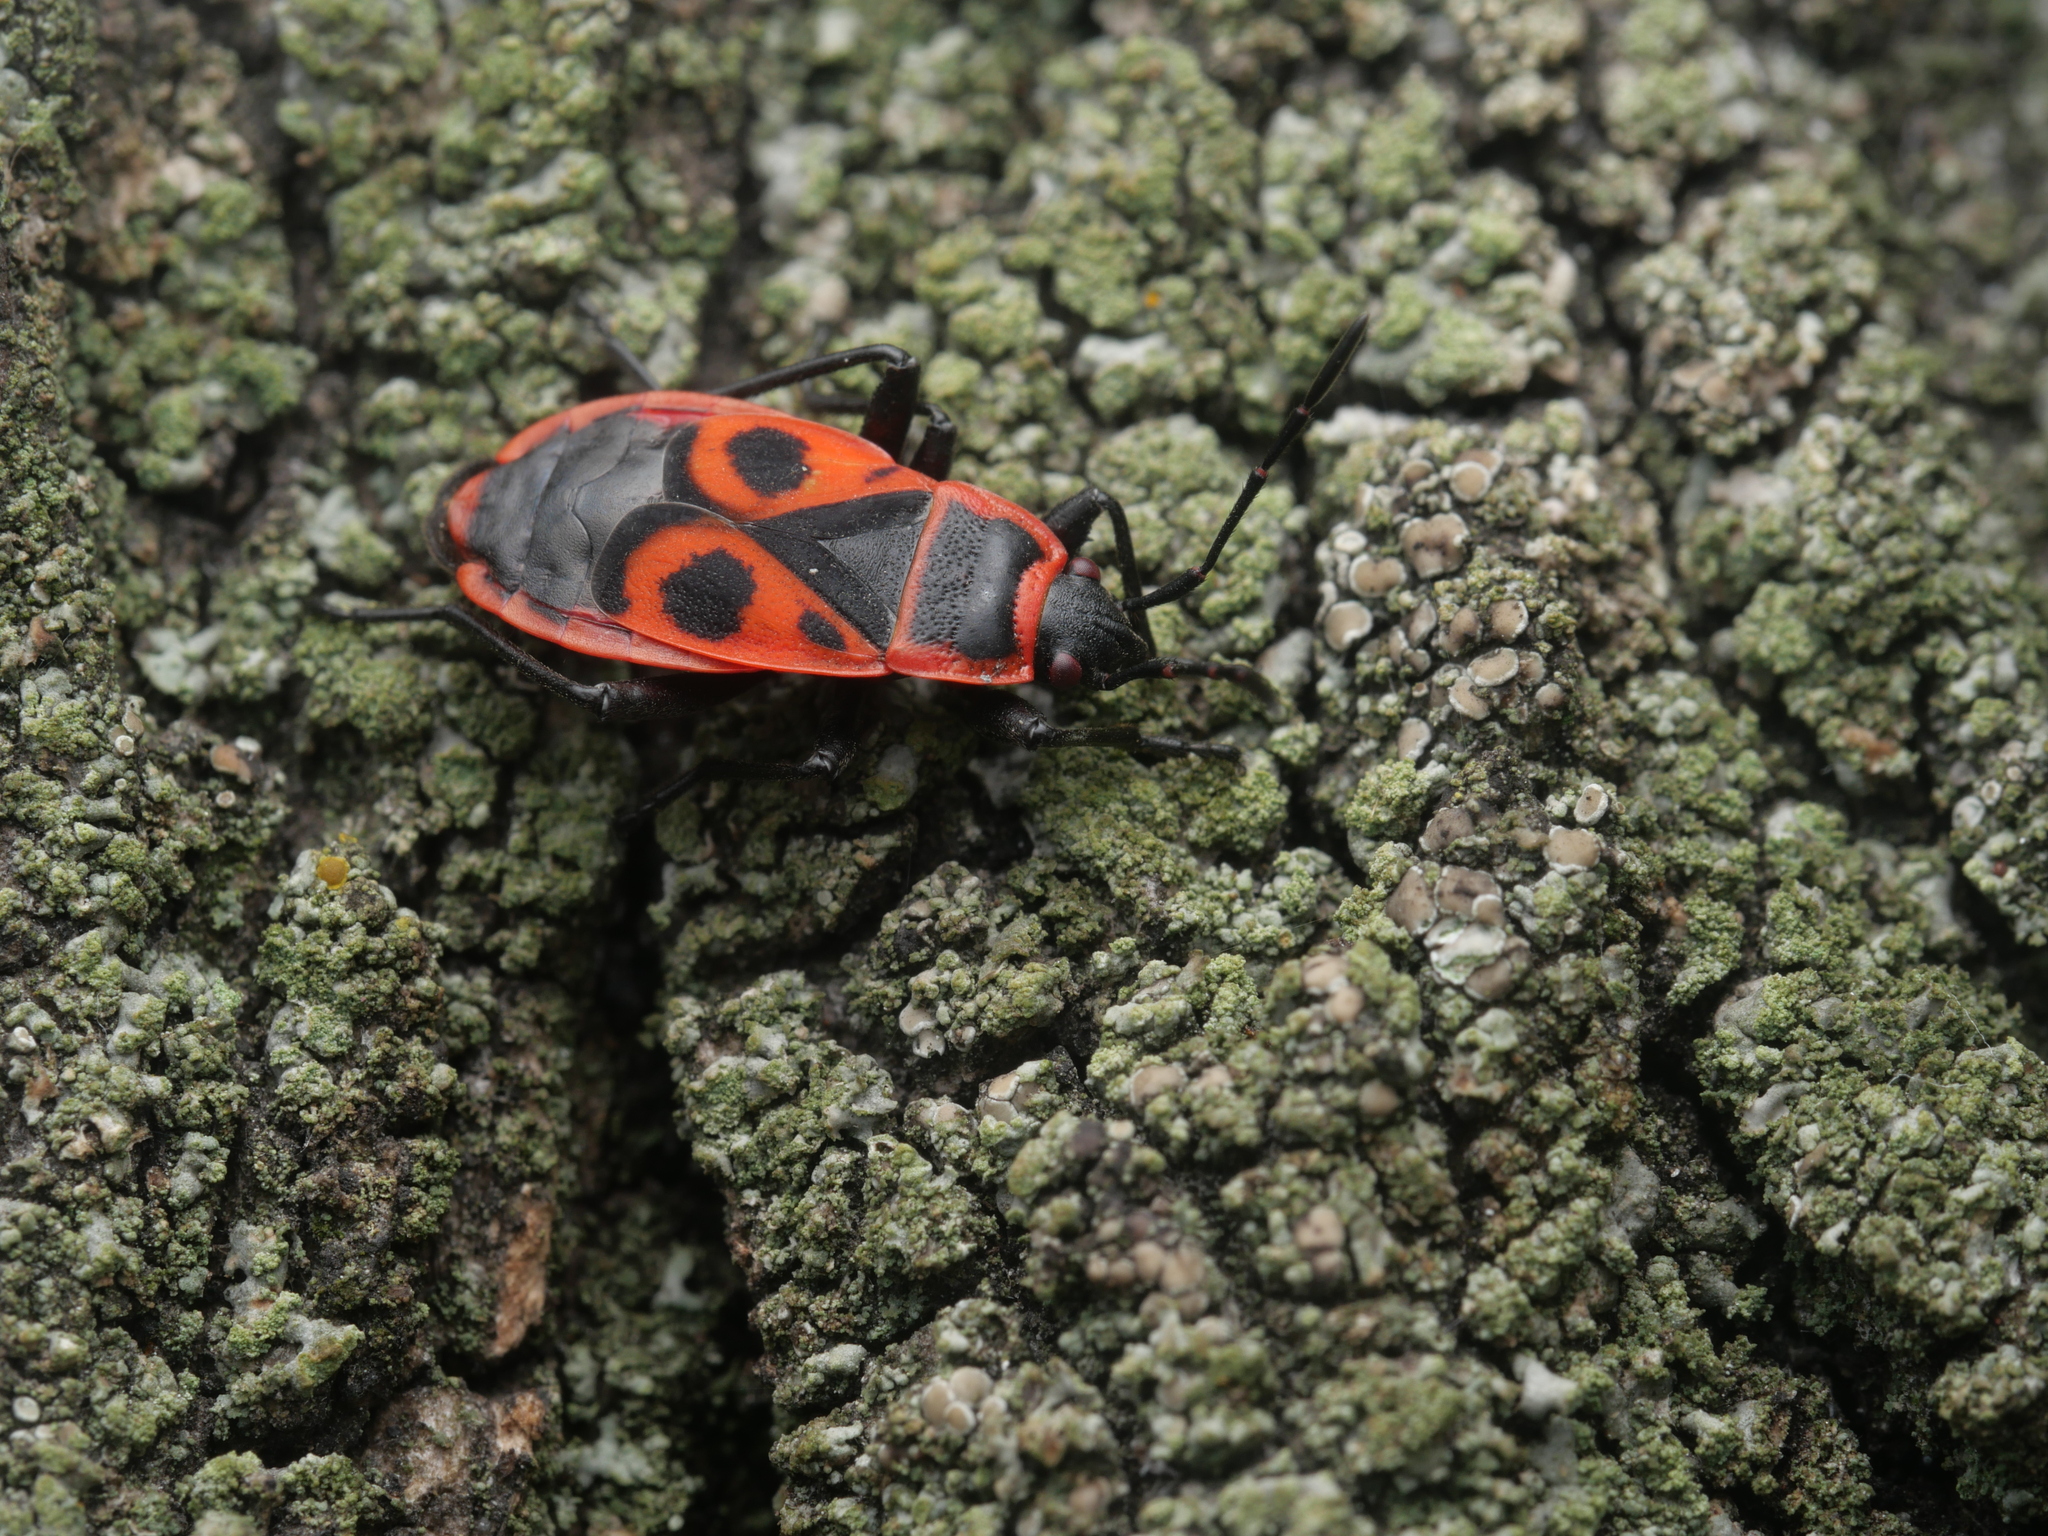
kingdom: Animalia
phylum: Arthropoda
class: Insecta
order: Hemiptera
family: Pyrrhocoridae
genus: Pyrrhocoris
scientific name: Pyrrhocoris apterus
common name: Firebug
